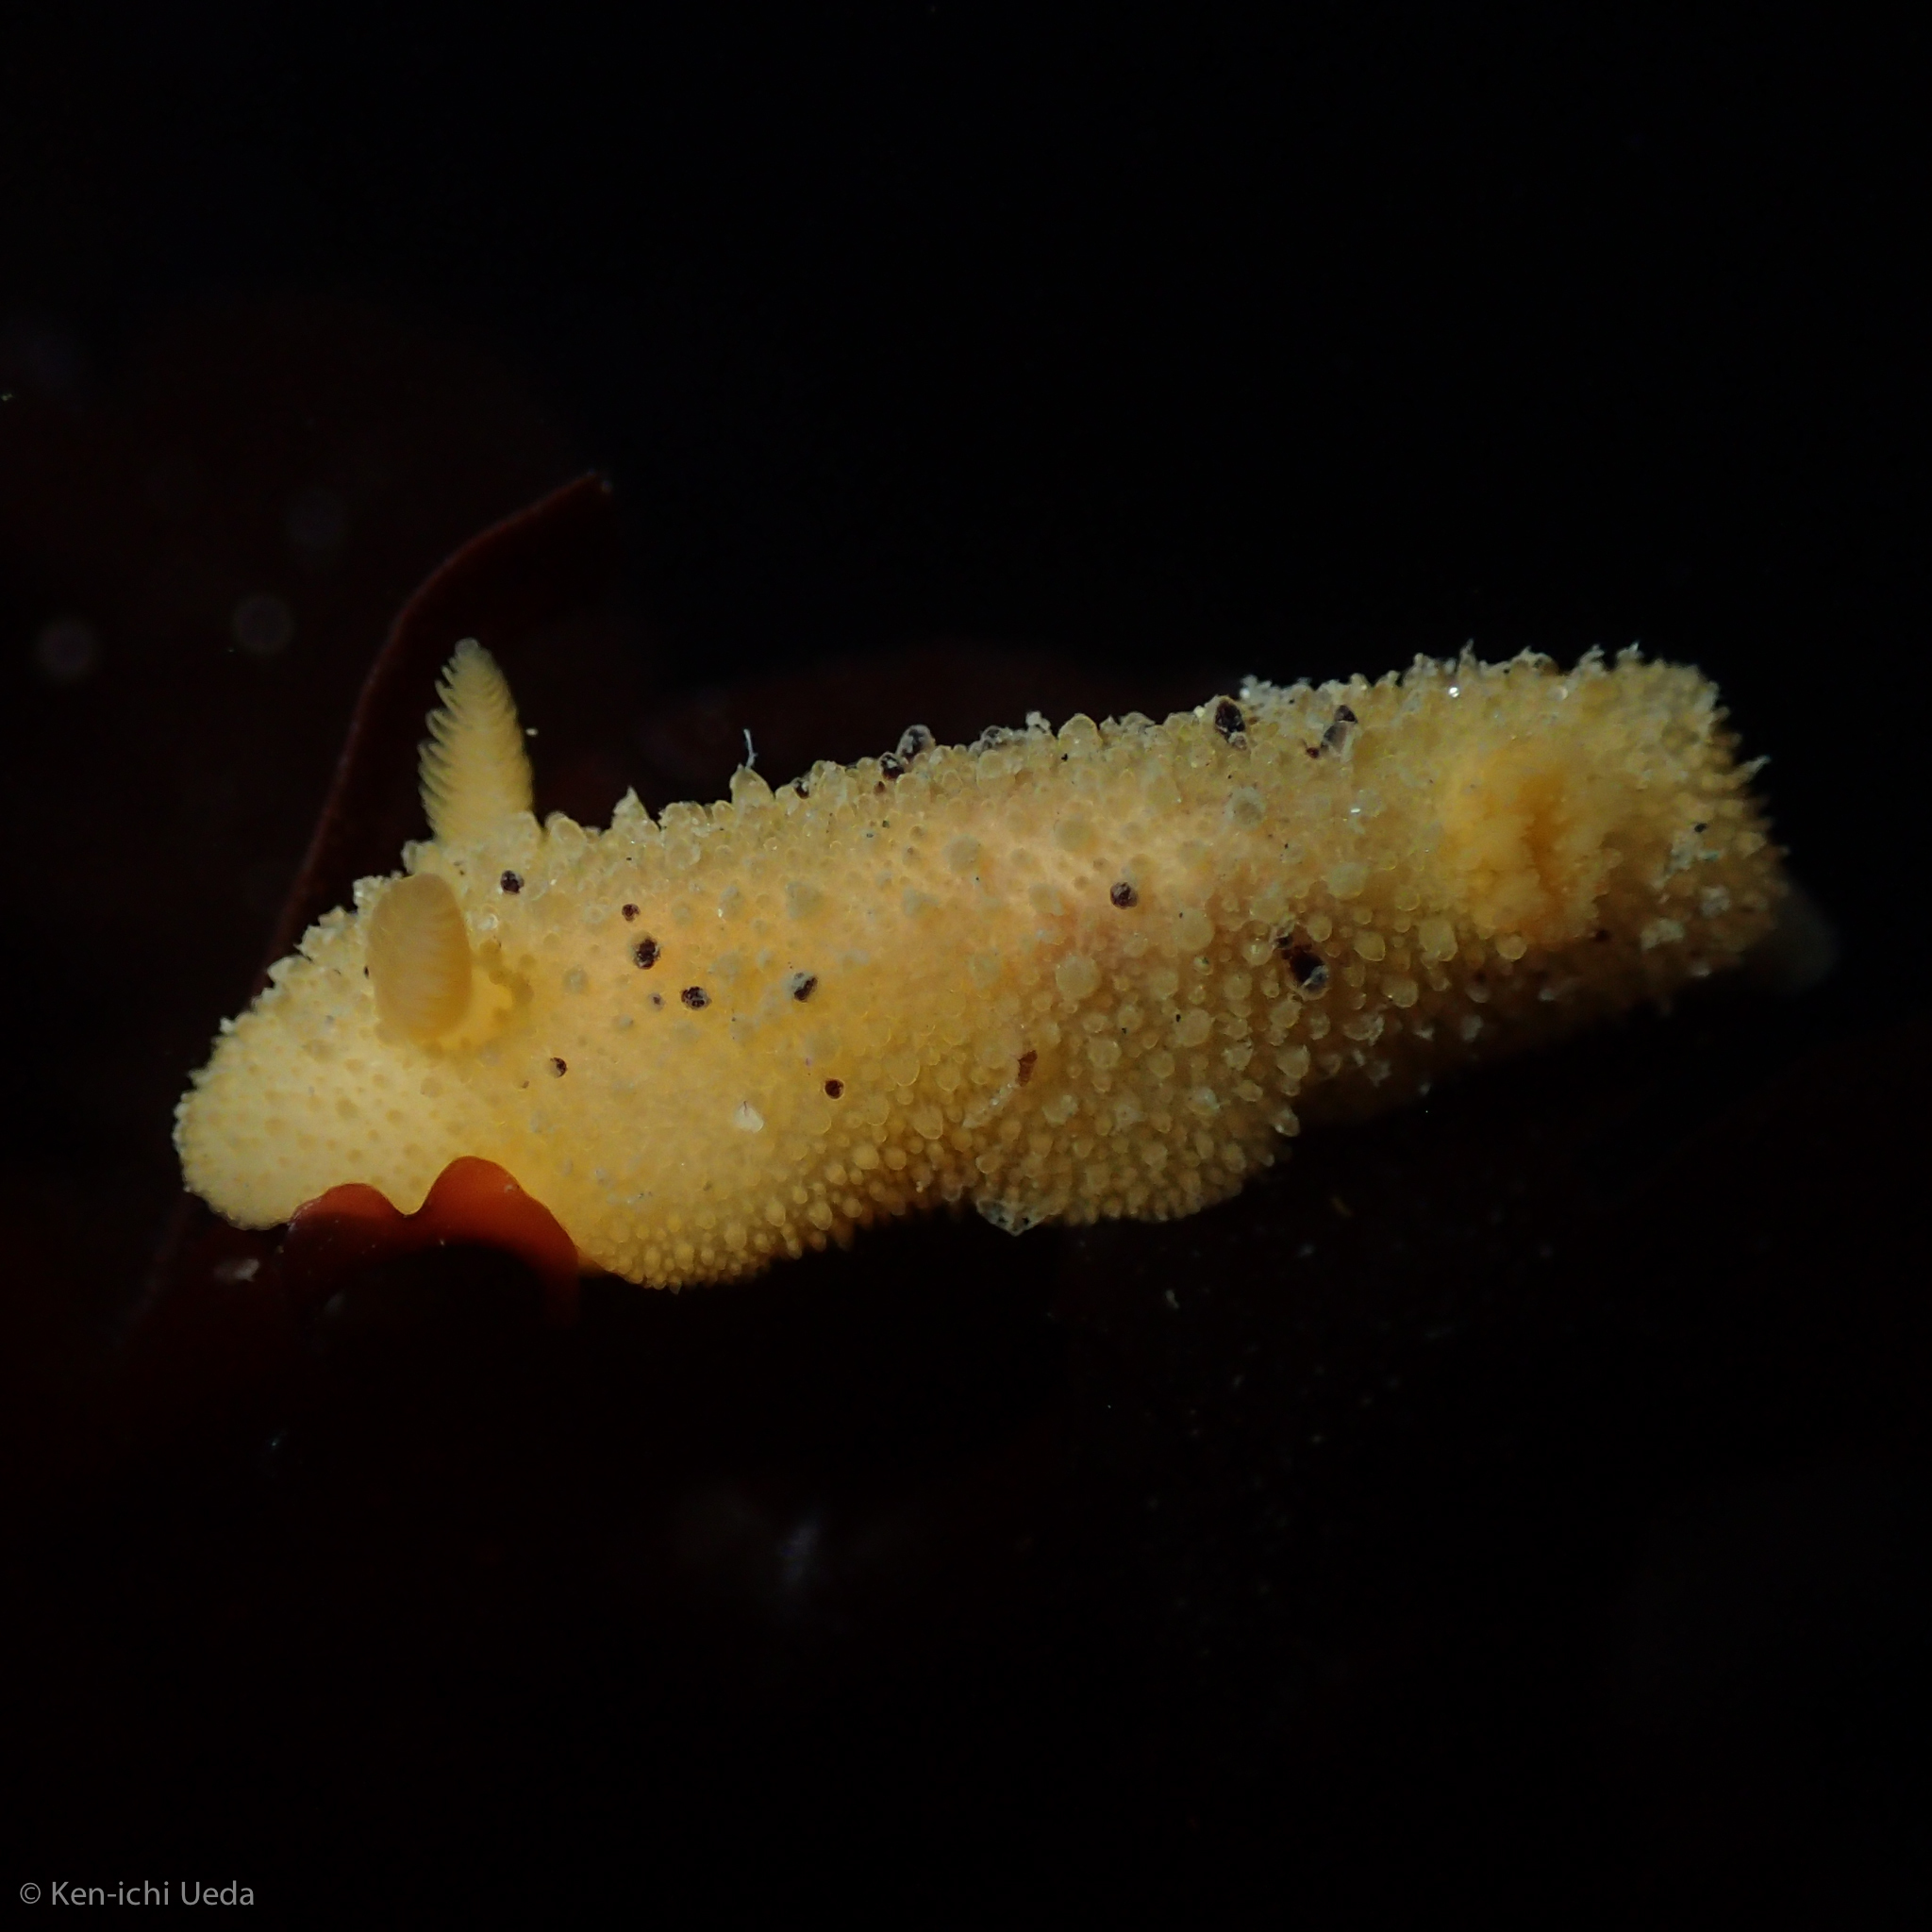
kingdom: Animalia
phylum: Mollusca
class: Gastropoda
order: Nudibranchia
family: Dorididae
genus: Doris
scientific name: Doris montereyensis
